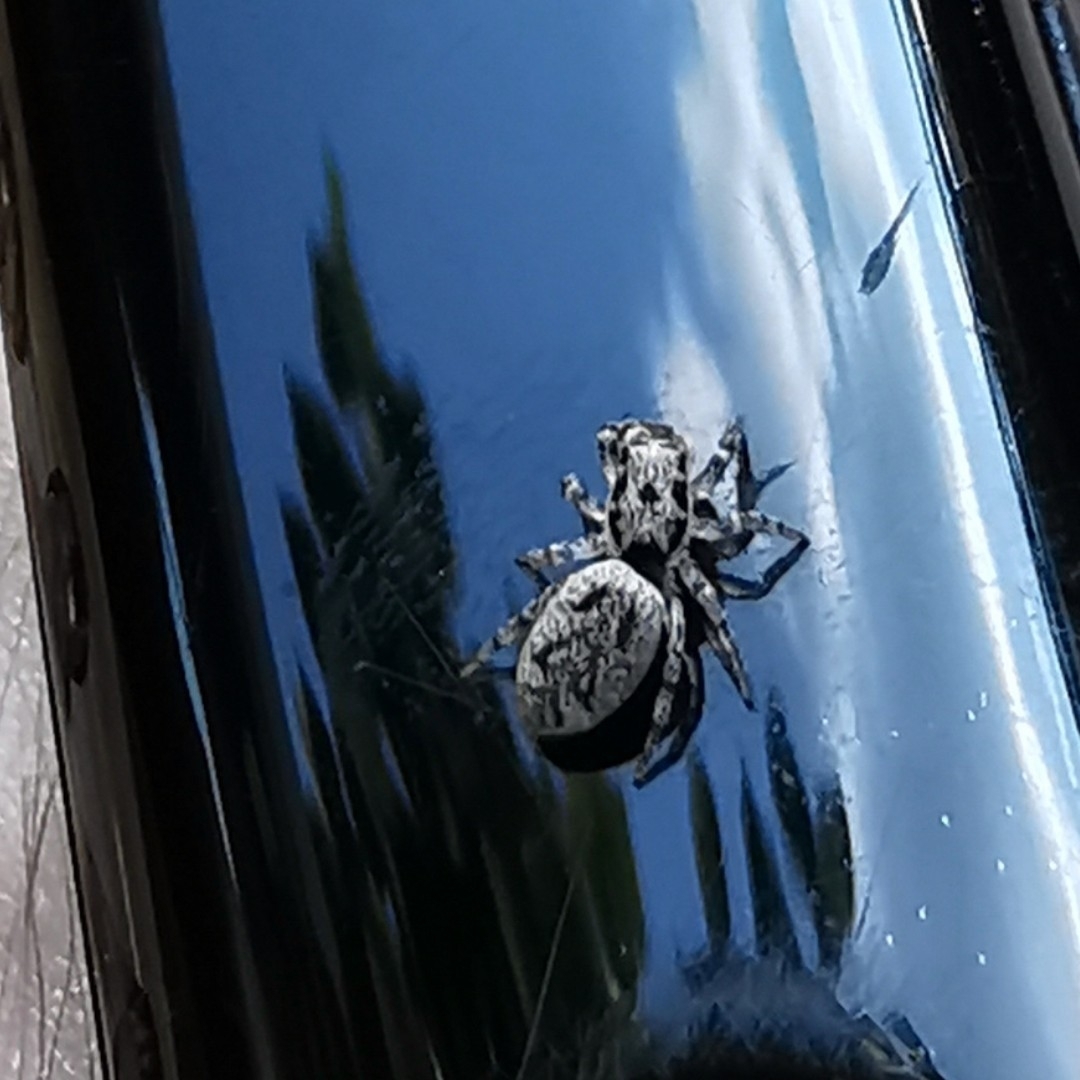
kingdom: Animalia
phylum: Arthropoda
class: Arachnida
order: Araneae
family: Salticidae
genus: Salticus
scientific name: Salticus cingulatus
